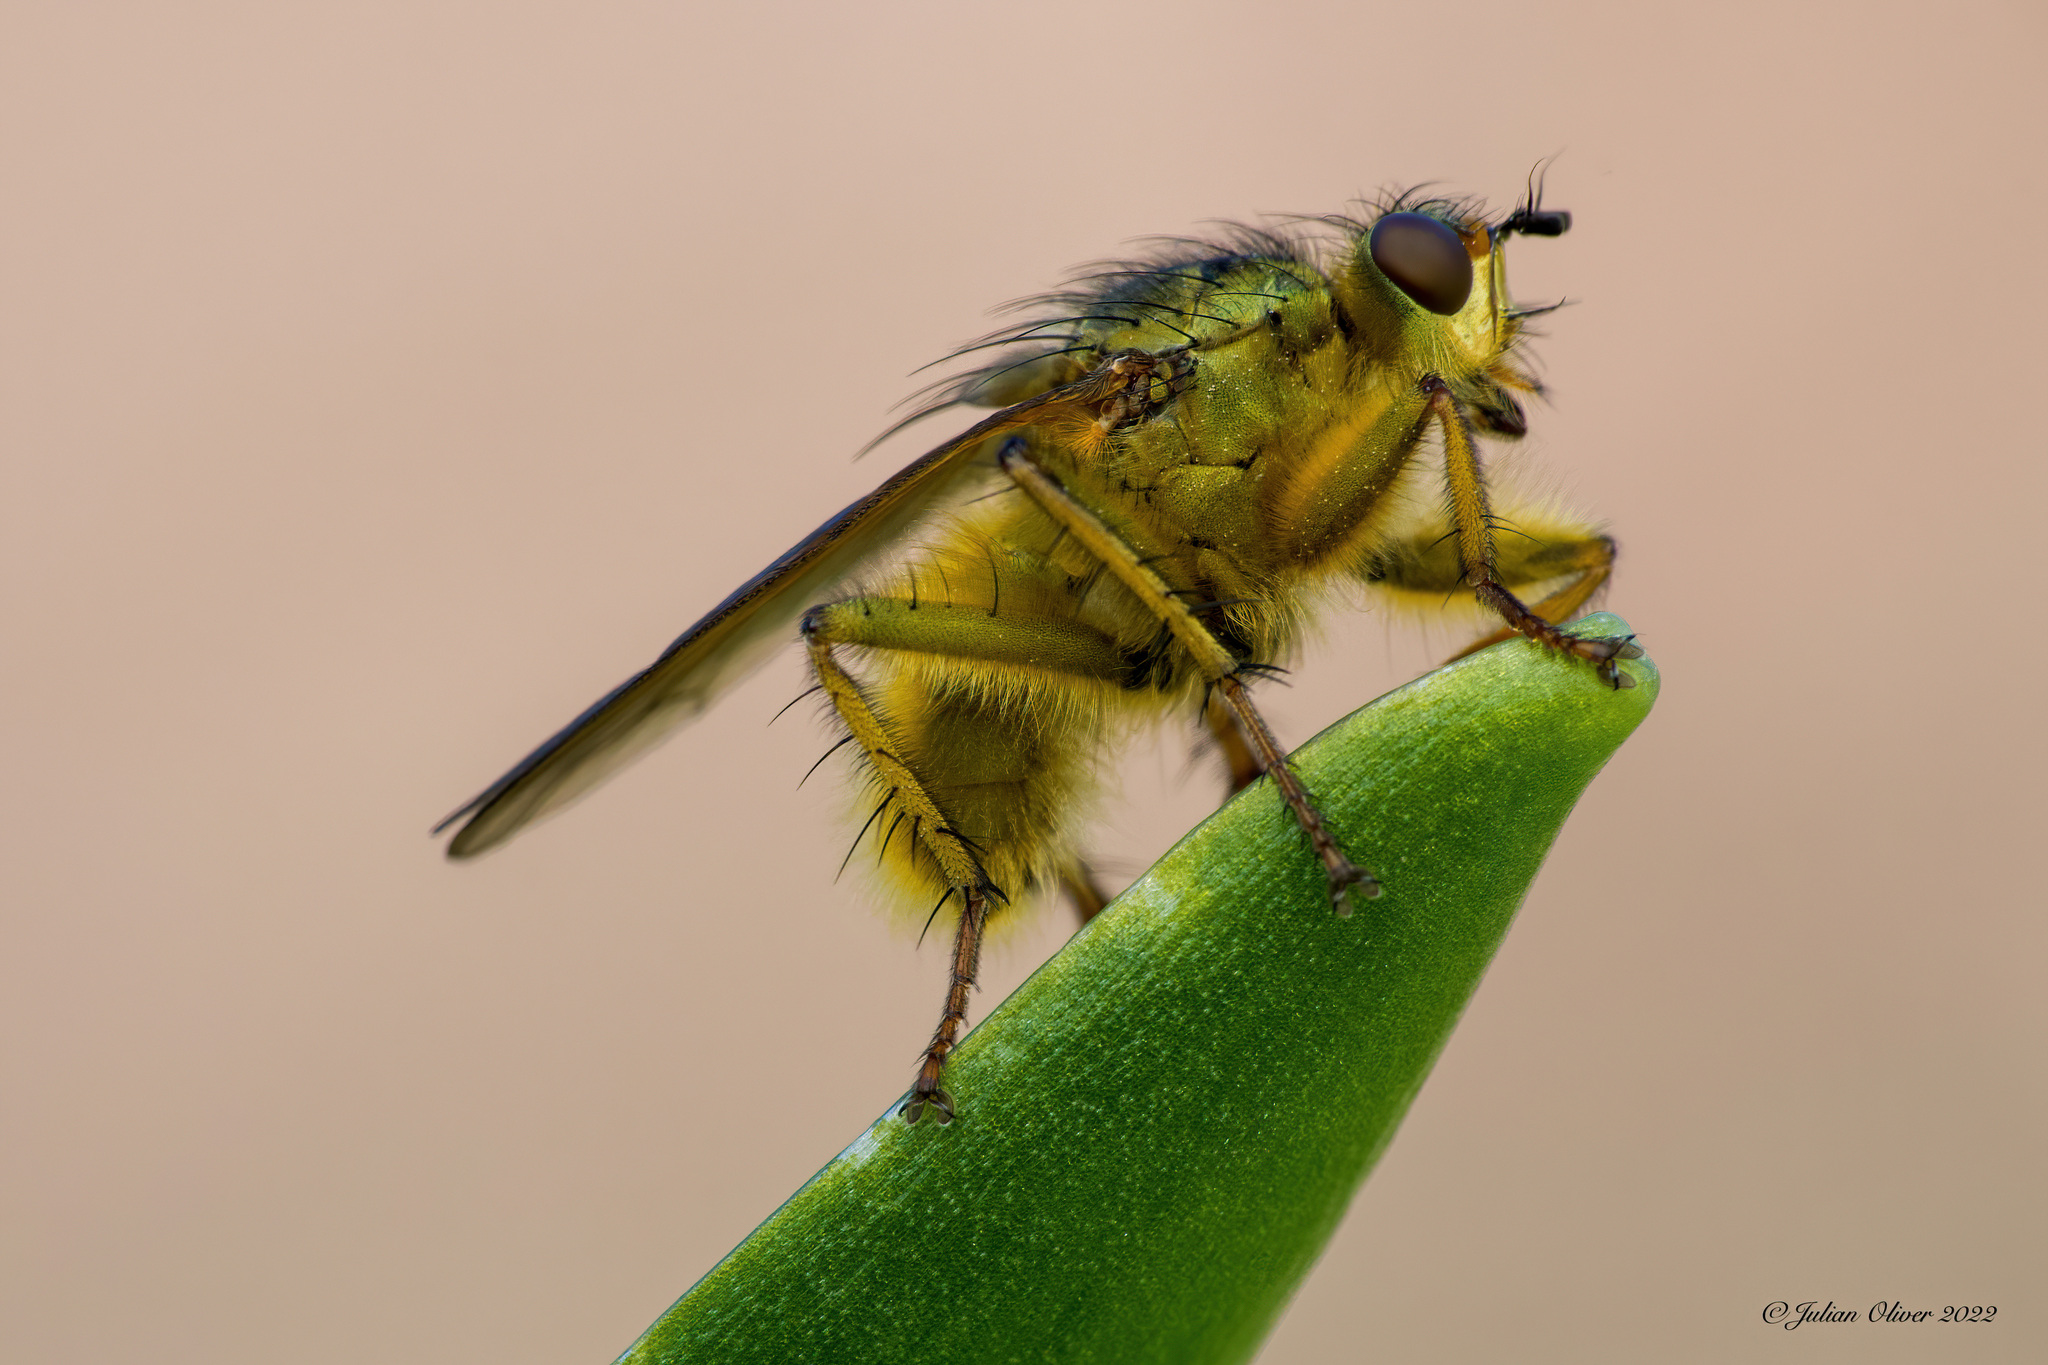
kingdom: Animalia
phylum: Arthropoda
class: Insecta
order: Diptera
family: Scathophagidae
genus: Scathophaga
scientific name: Scathophaga stercoraria
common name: Yellow dung fly
